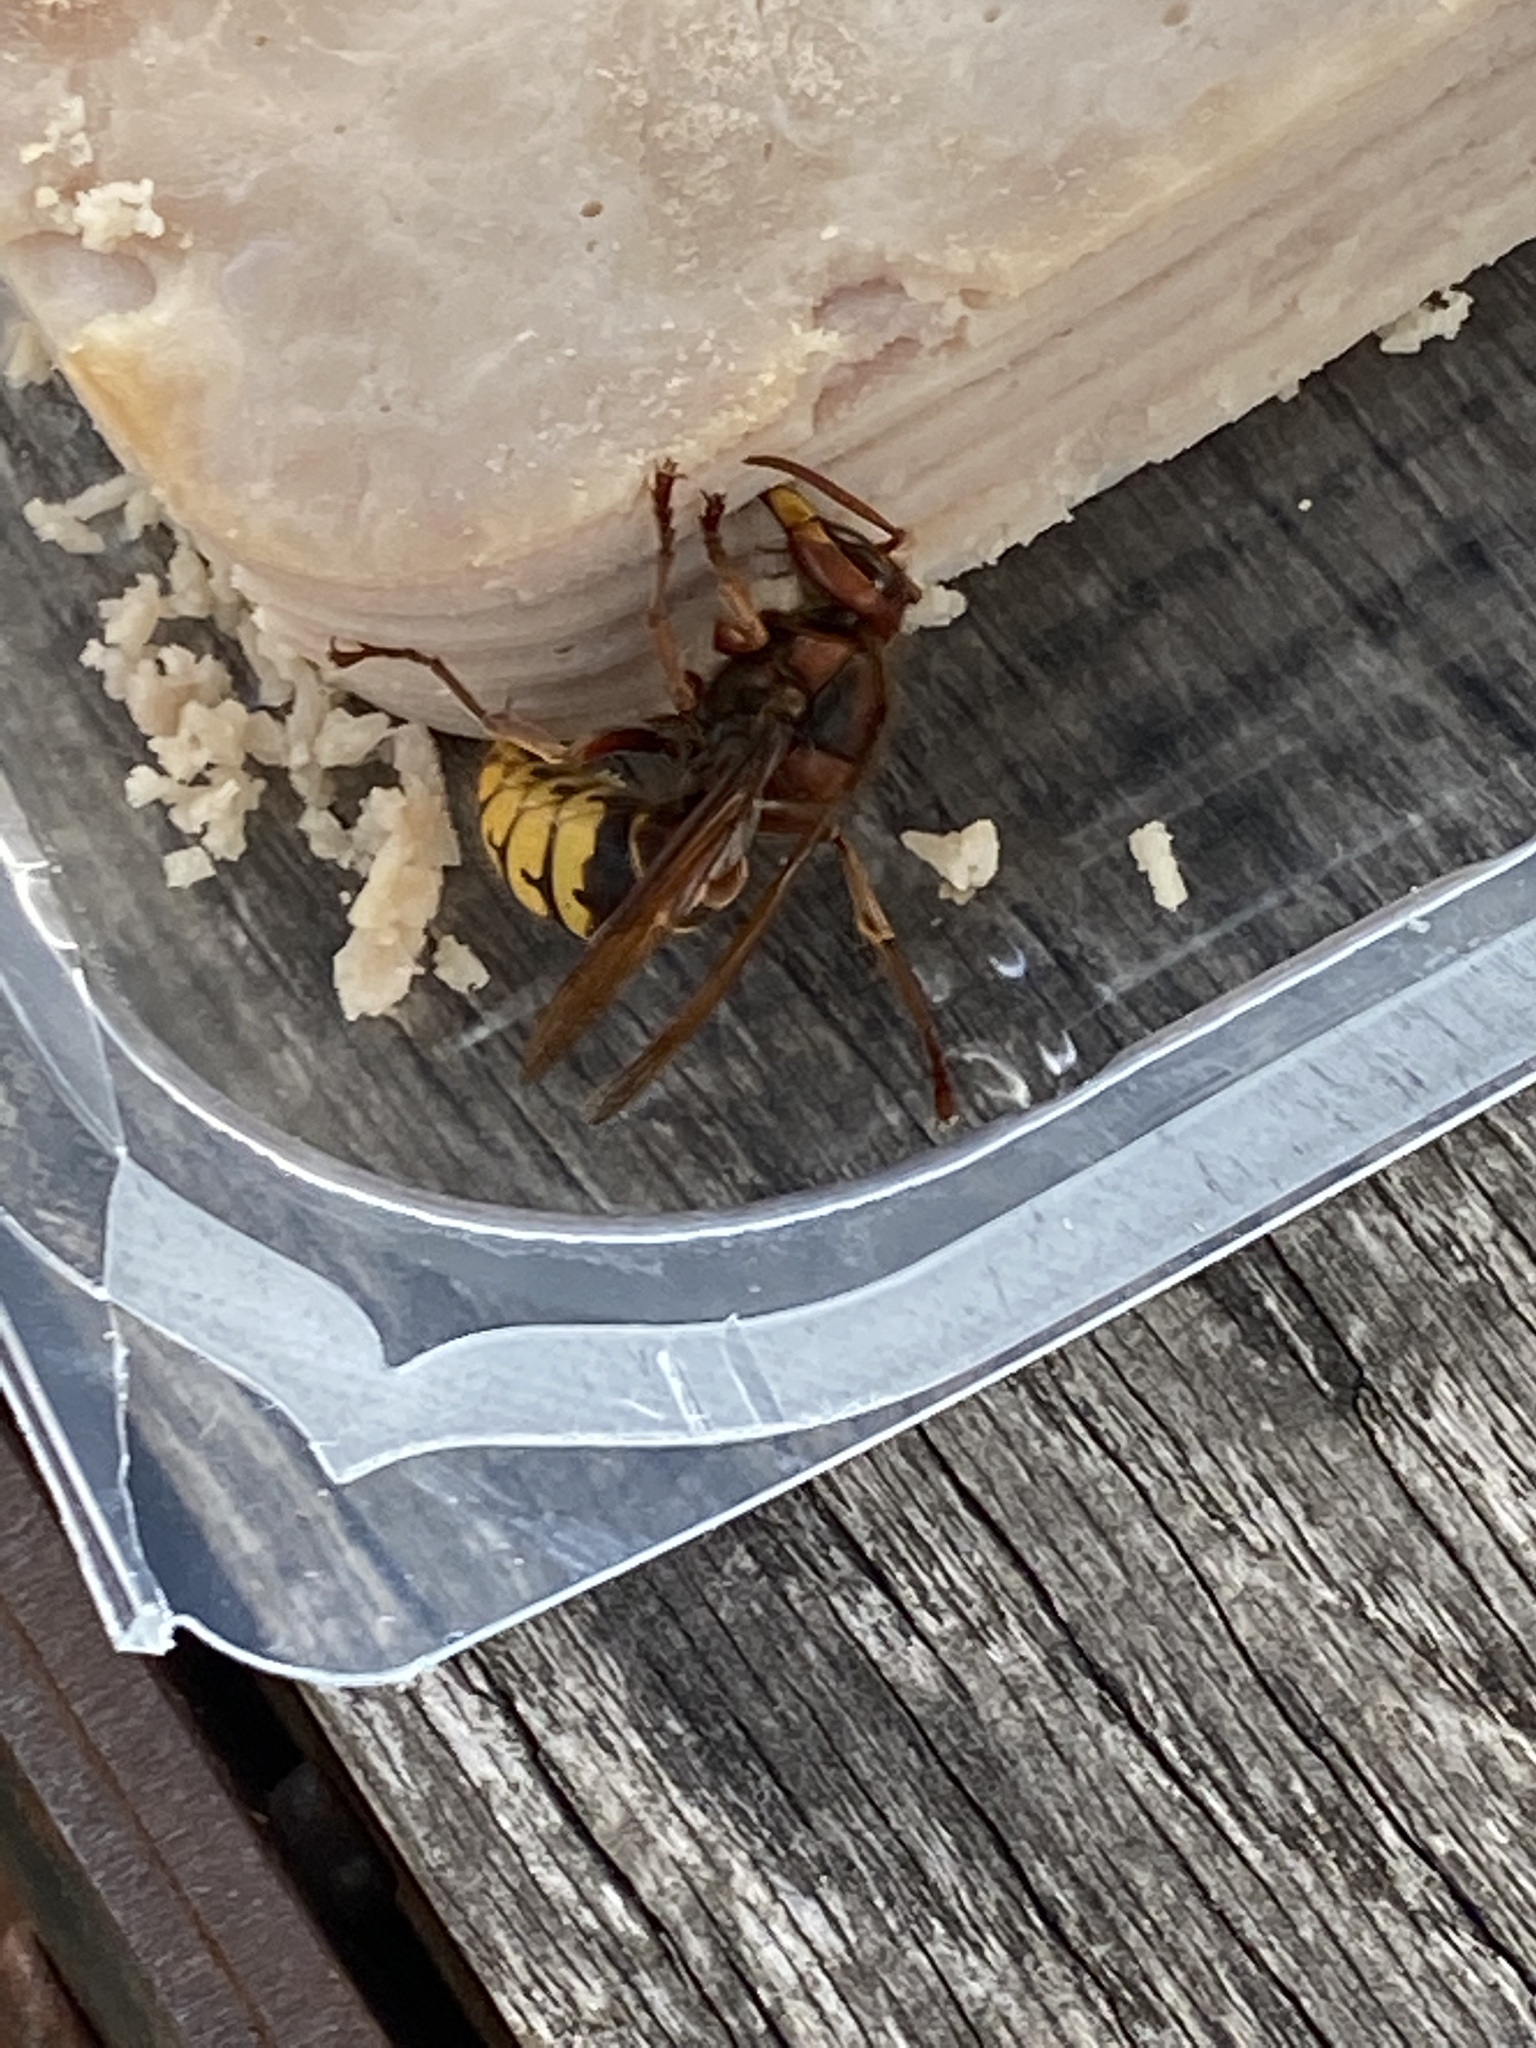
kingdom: Animalia
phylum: Arthropoda
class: Insecta
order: Hymenoptera
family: Vespidae
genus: Vespa
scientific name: Vespa crabro
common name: Hornet
